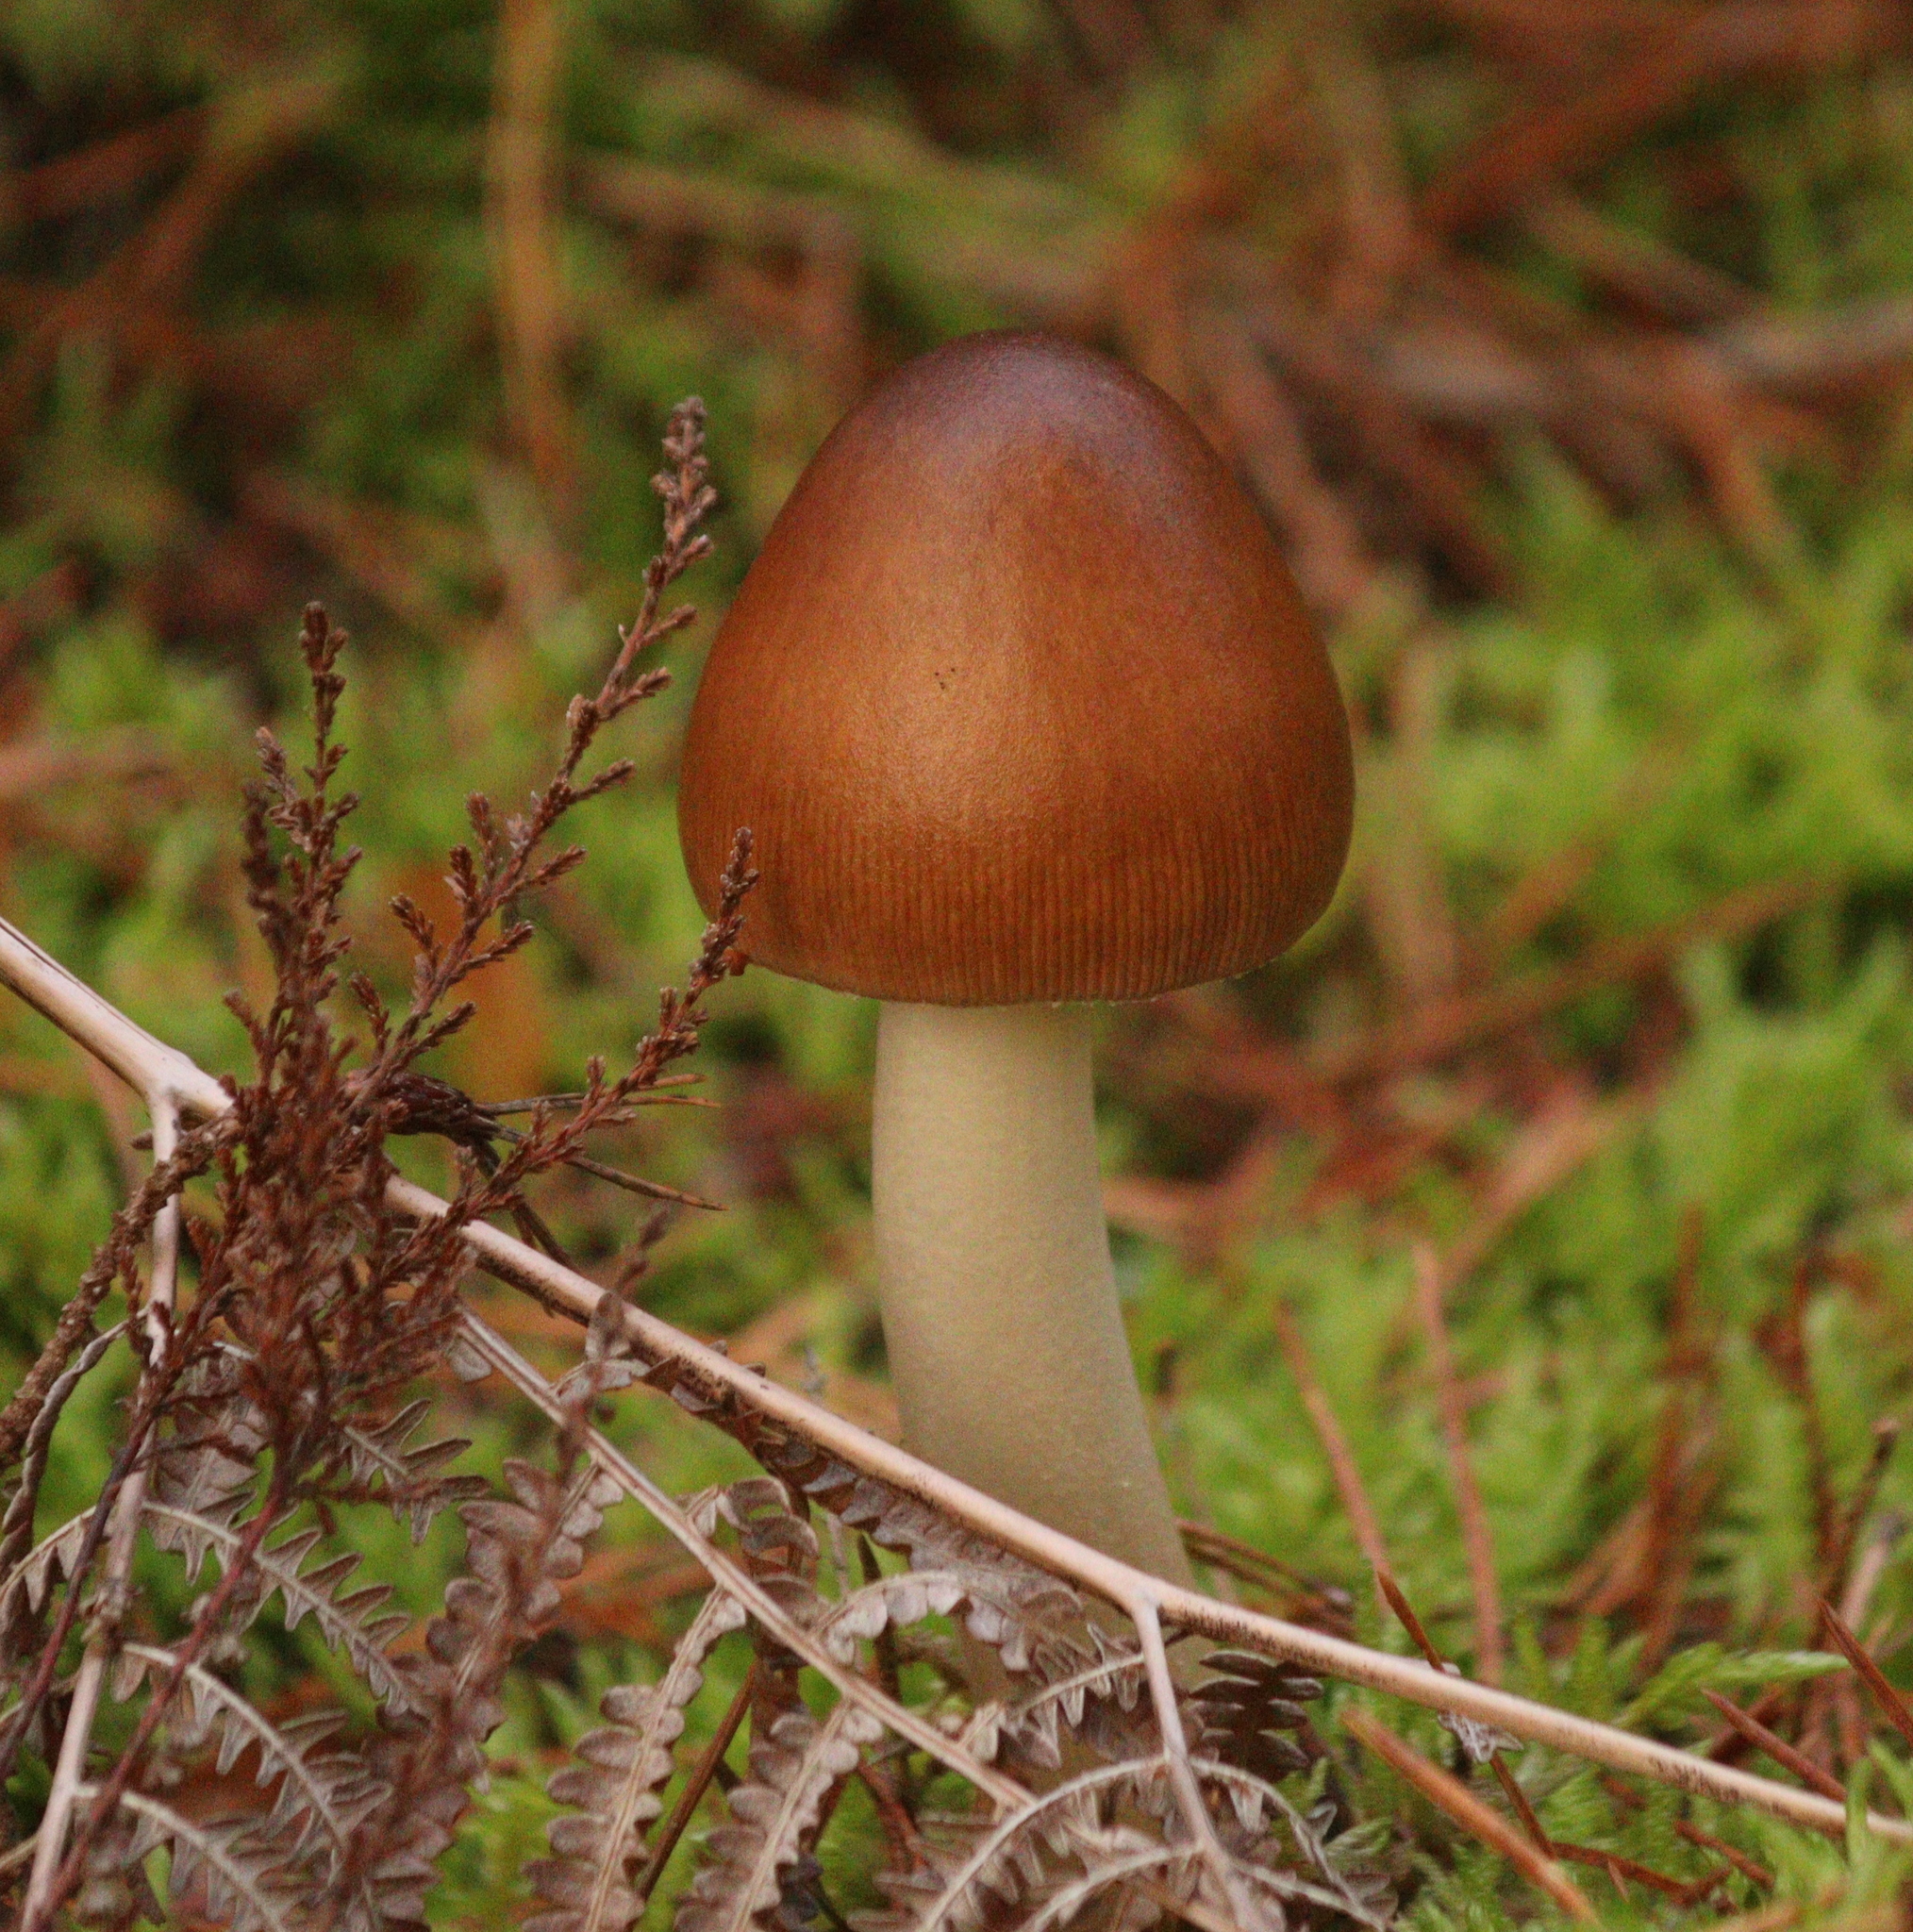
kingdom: Fungi
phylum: Basidiomycota
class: Agaricomycetes
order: Agaricales
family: Amanitaceae
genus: Amanita
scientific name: Amanita fulva
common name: Tawny grisette
